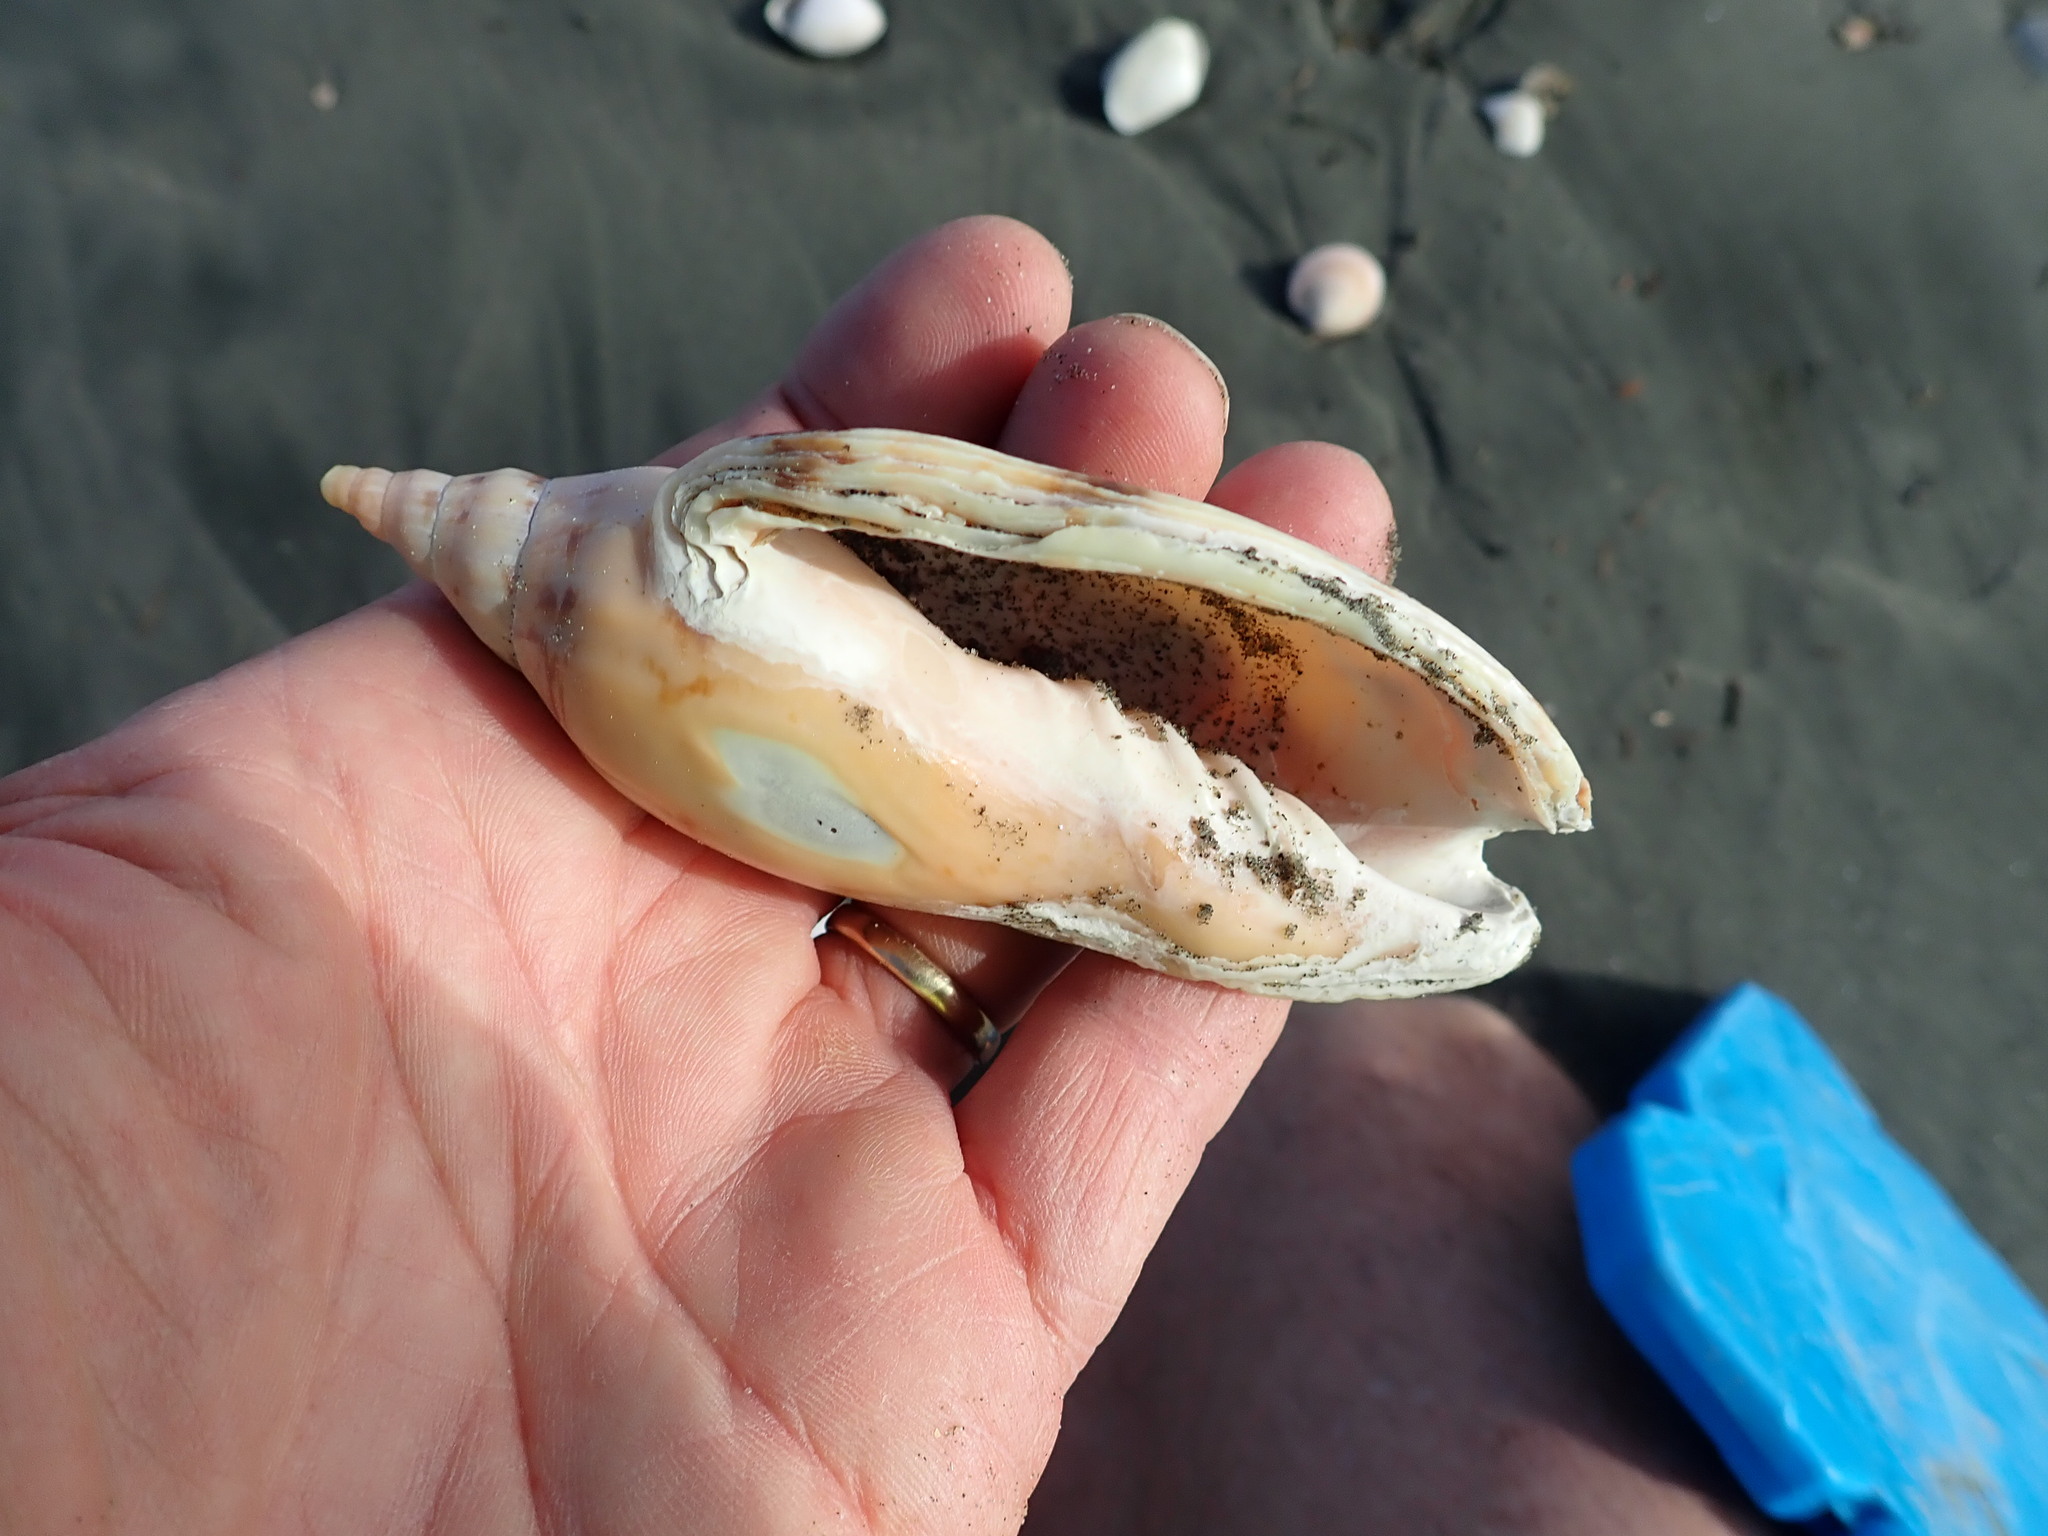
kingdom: Animalia
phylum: Mollusca
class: Gastropoda
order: Neogastropoda
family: Volutidae
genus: Alcithoe
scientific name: Alcithoe arabica
